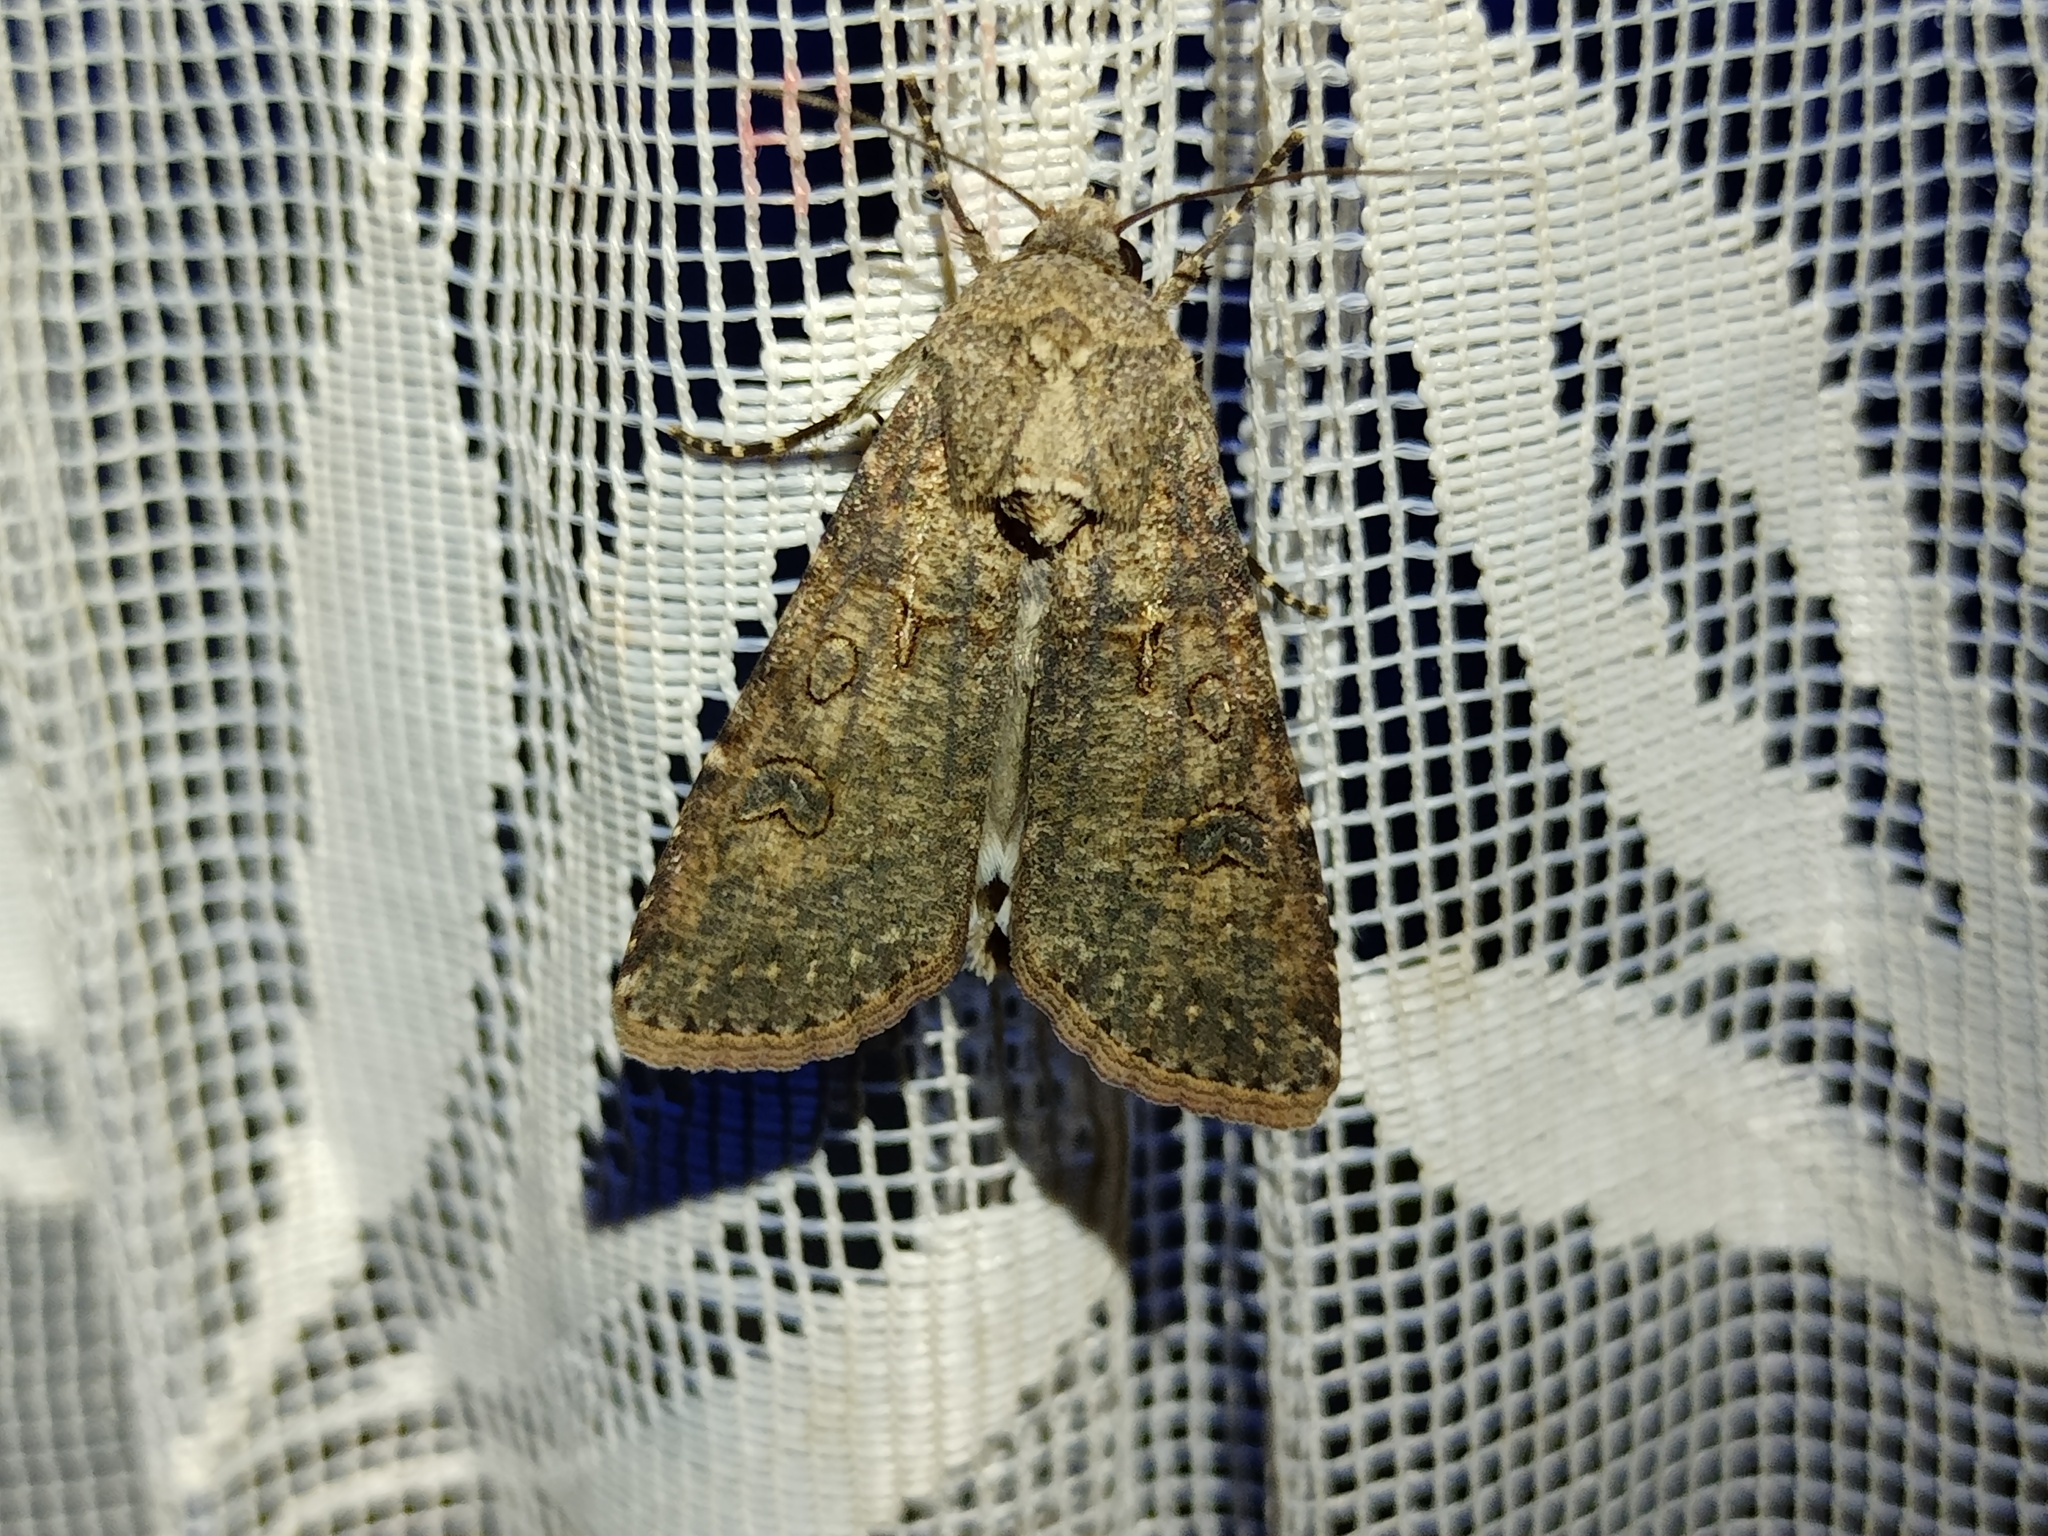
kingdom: Animalia
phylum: Arthropoda
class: Insecta
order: Lepidoptera
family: Noctuidae
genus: Agrotis
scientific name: Agrotis segetum
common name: Turnip moth
